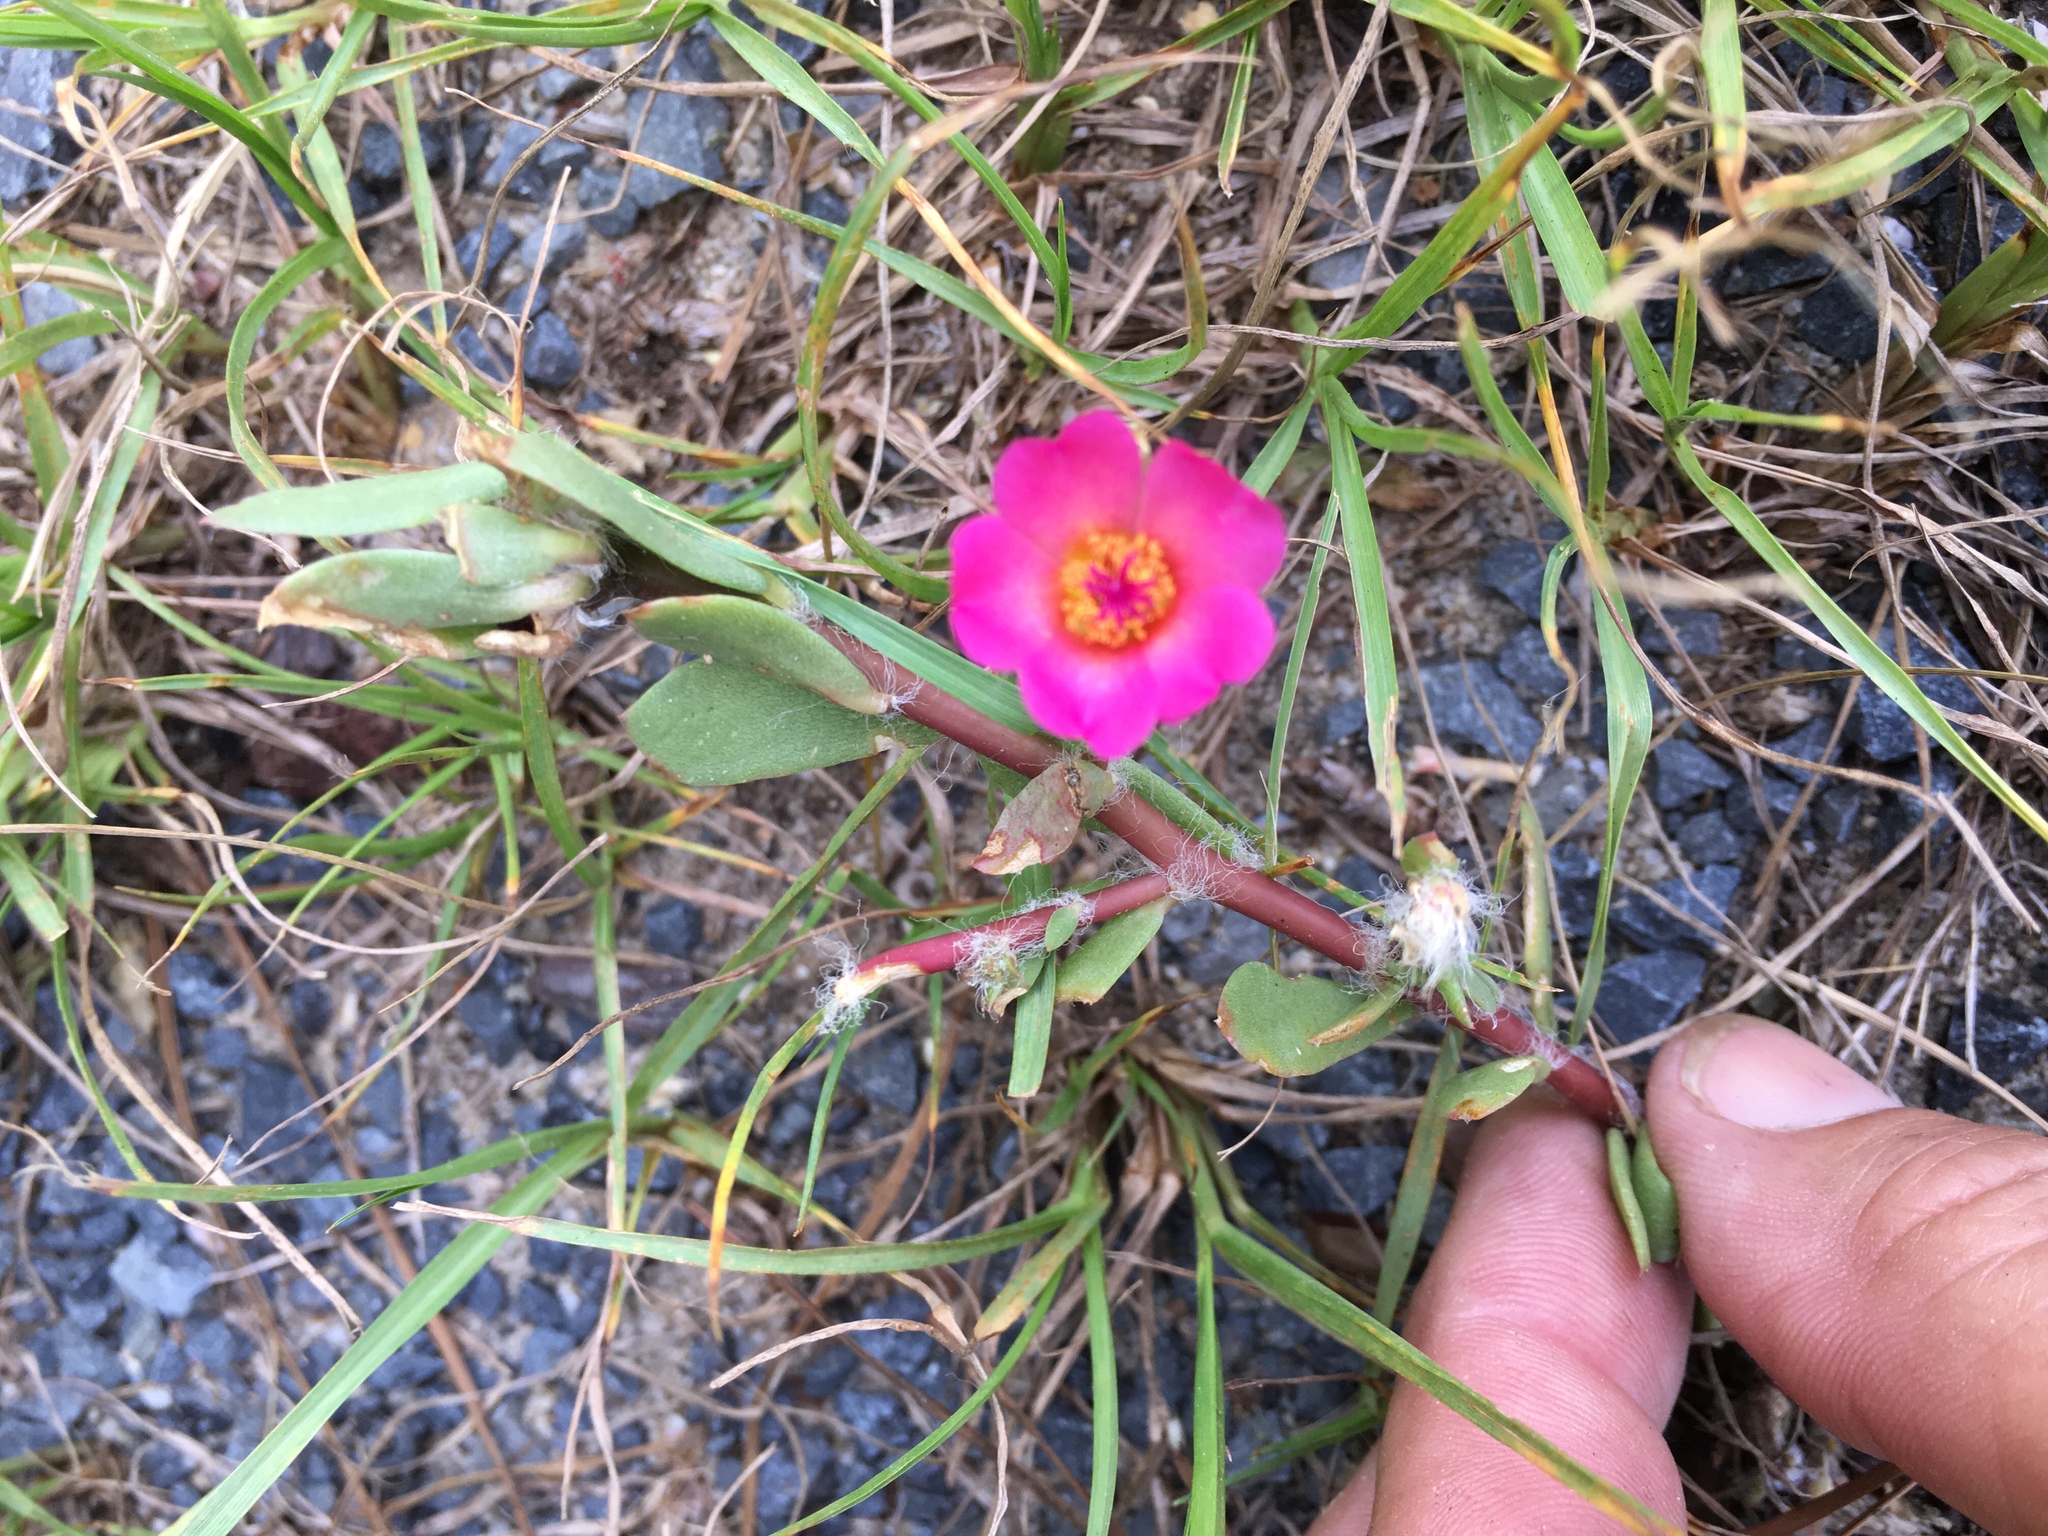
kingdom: Plantae
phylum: Tracheophyta
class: Magnoliopsida
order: Caryophyllales
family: Portulacaceae
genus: Portulaca
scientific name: Portulaca amilis
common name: Paraguayan purslane
